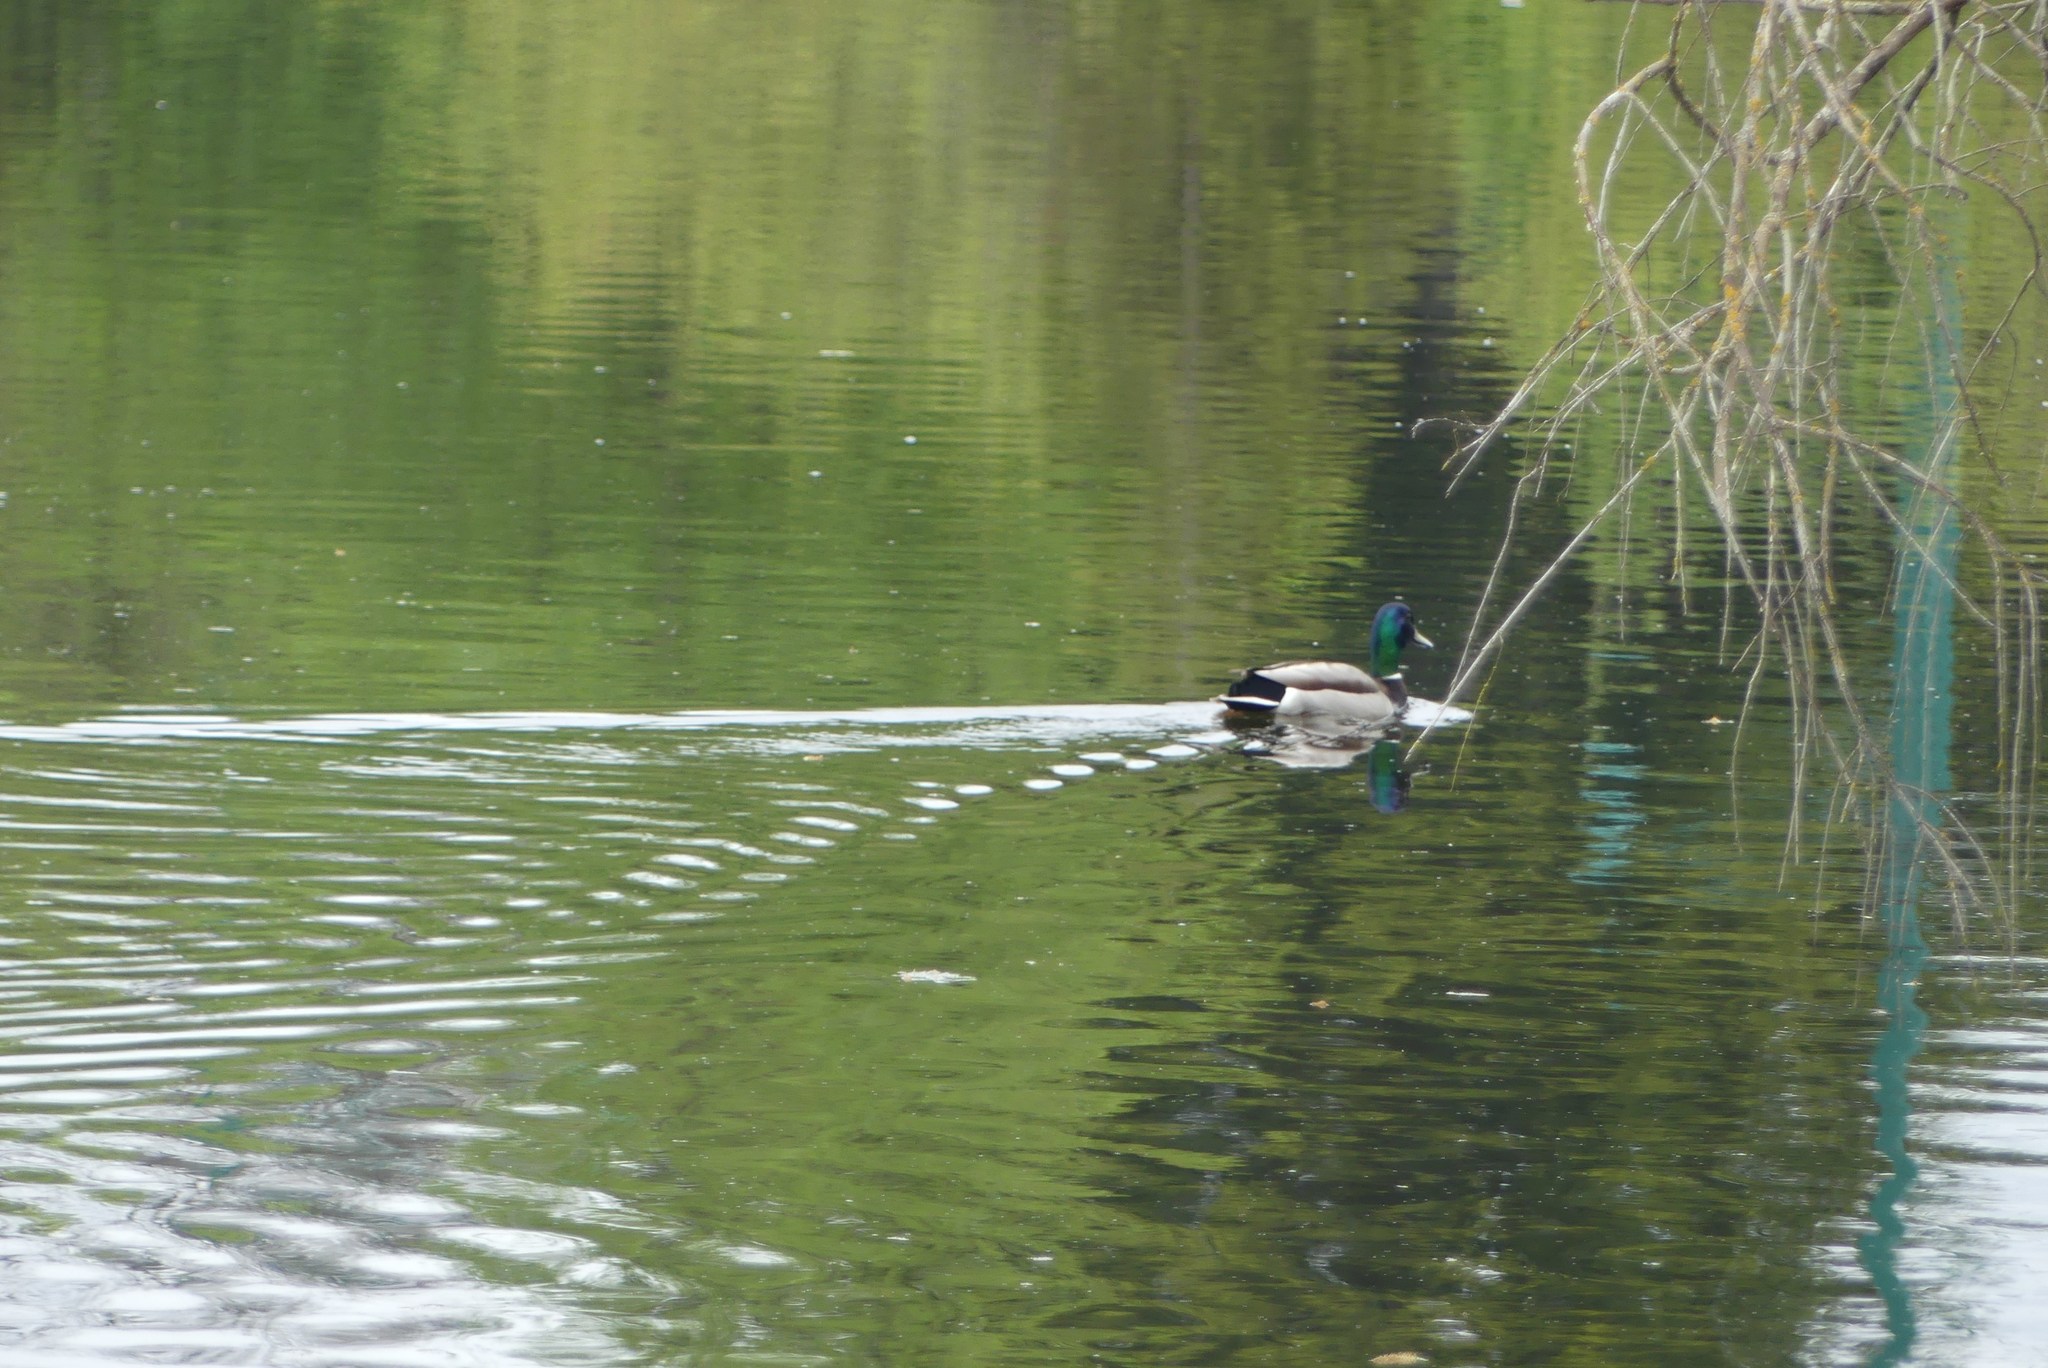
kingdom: Animalia
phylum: Chordata
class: Aves
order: Anseriformes
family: Anatidae
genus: Anas
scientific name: Anas platyrhynchos
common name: Mallard
